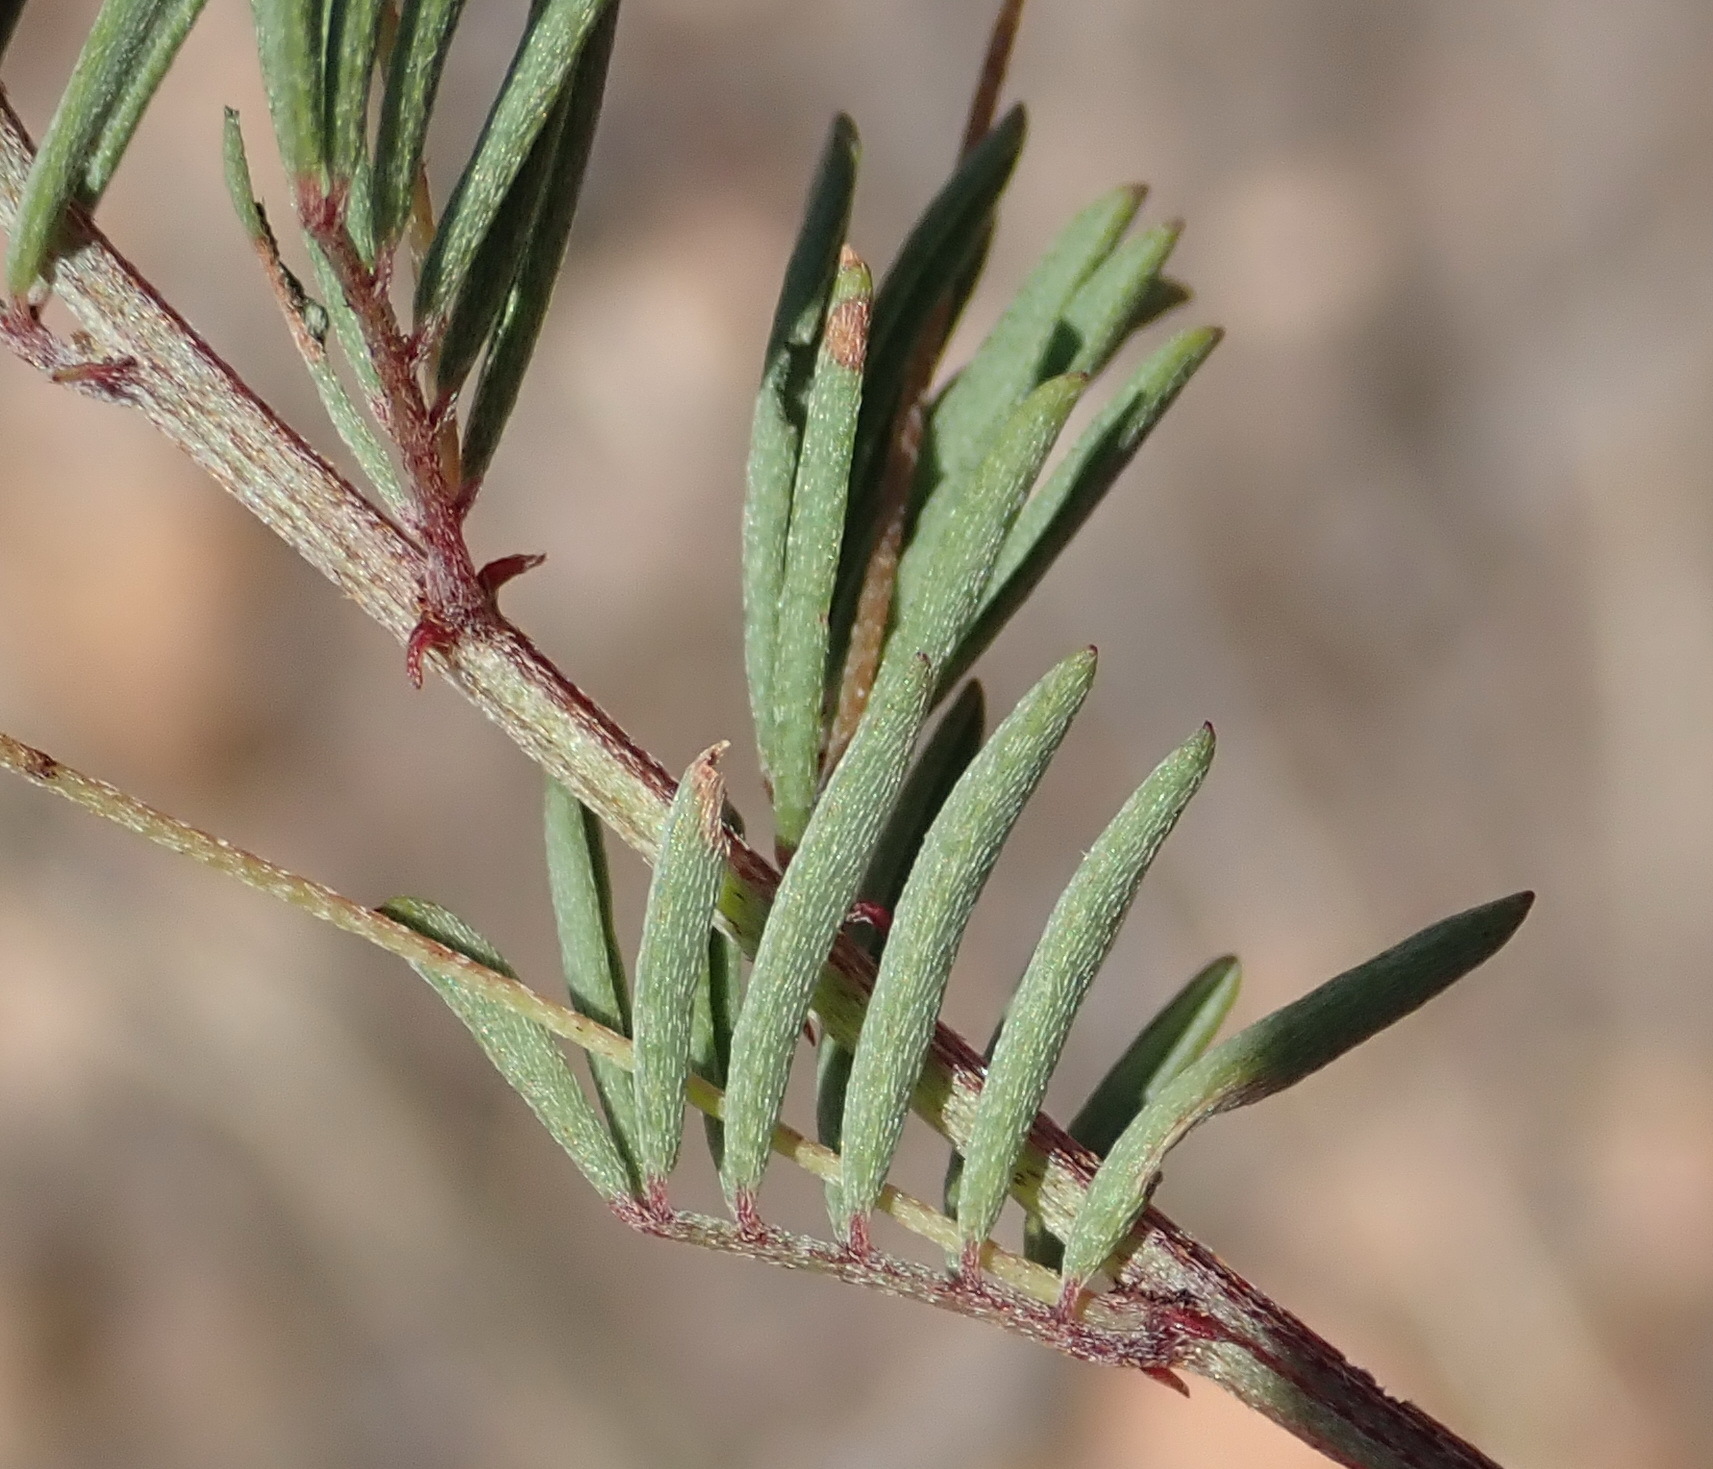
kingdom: Plantae
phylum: Tracheophyta
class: Magnoliopsida
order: Fabales
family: Fabaceae
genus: Indigofera
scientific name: Indigofera verrucosa
